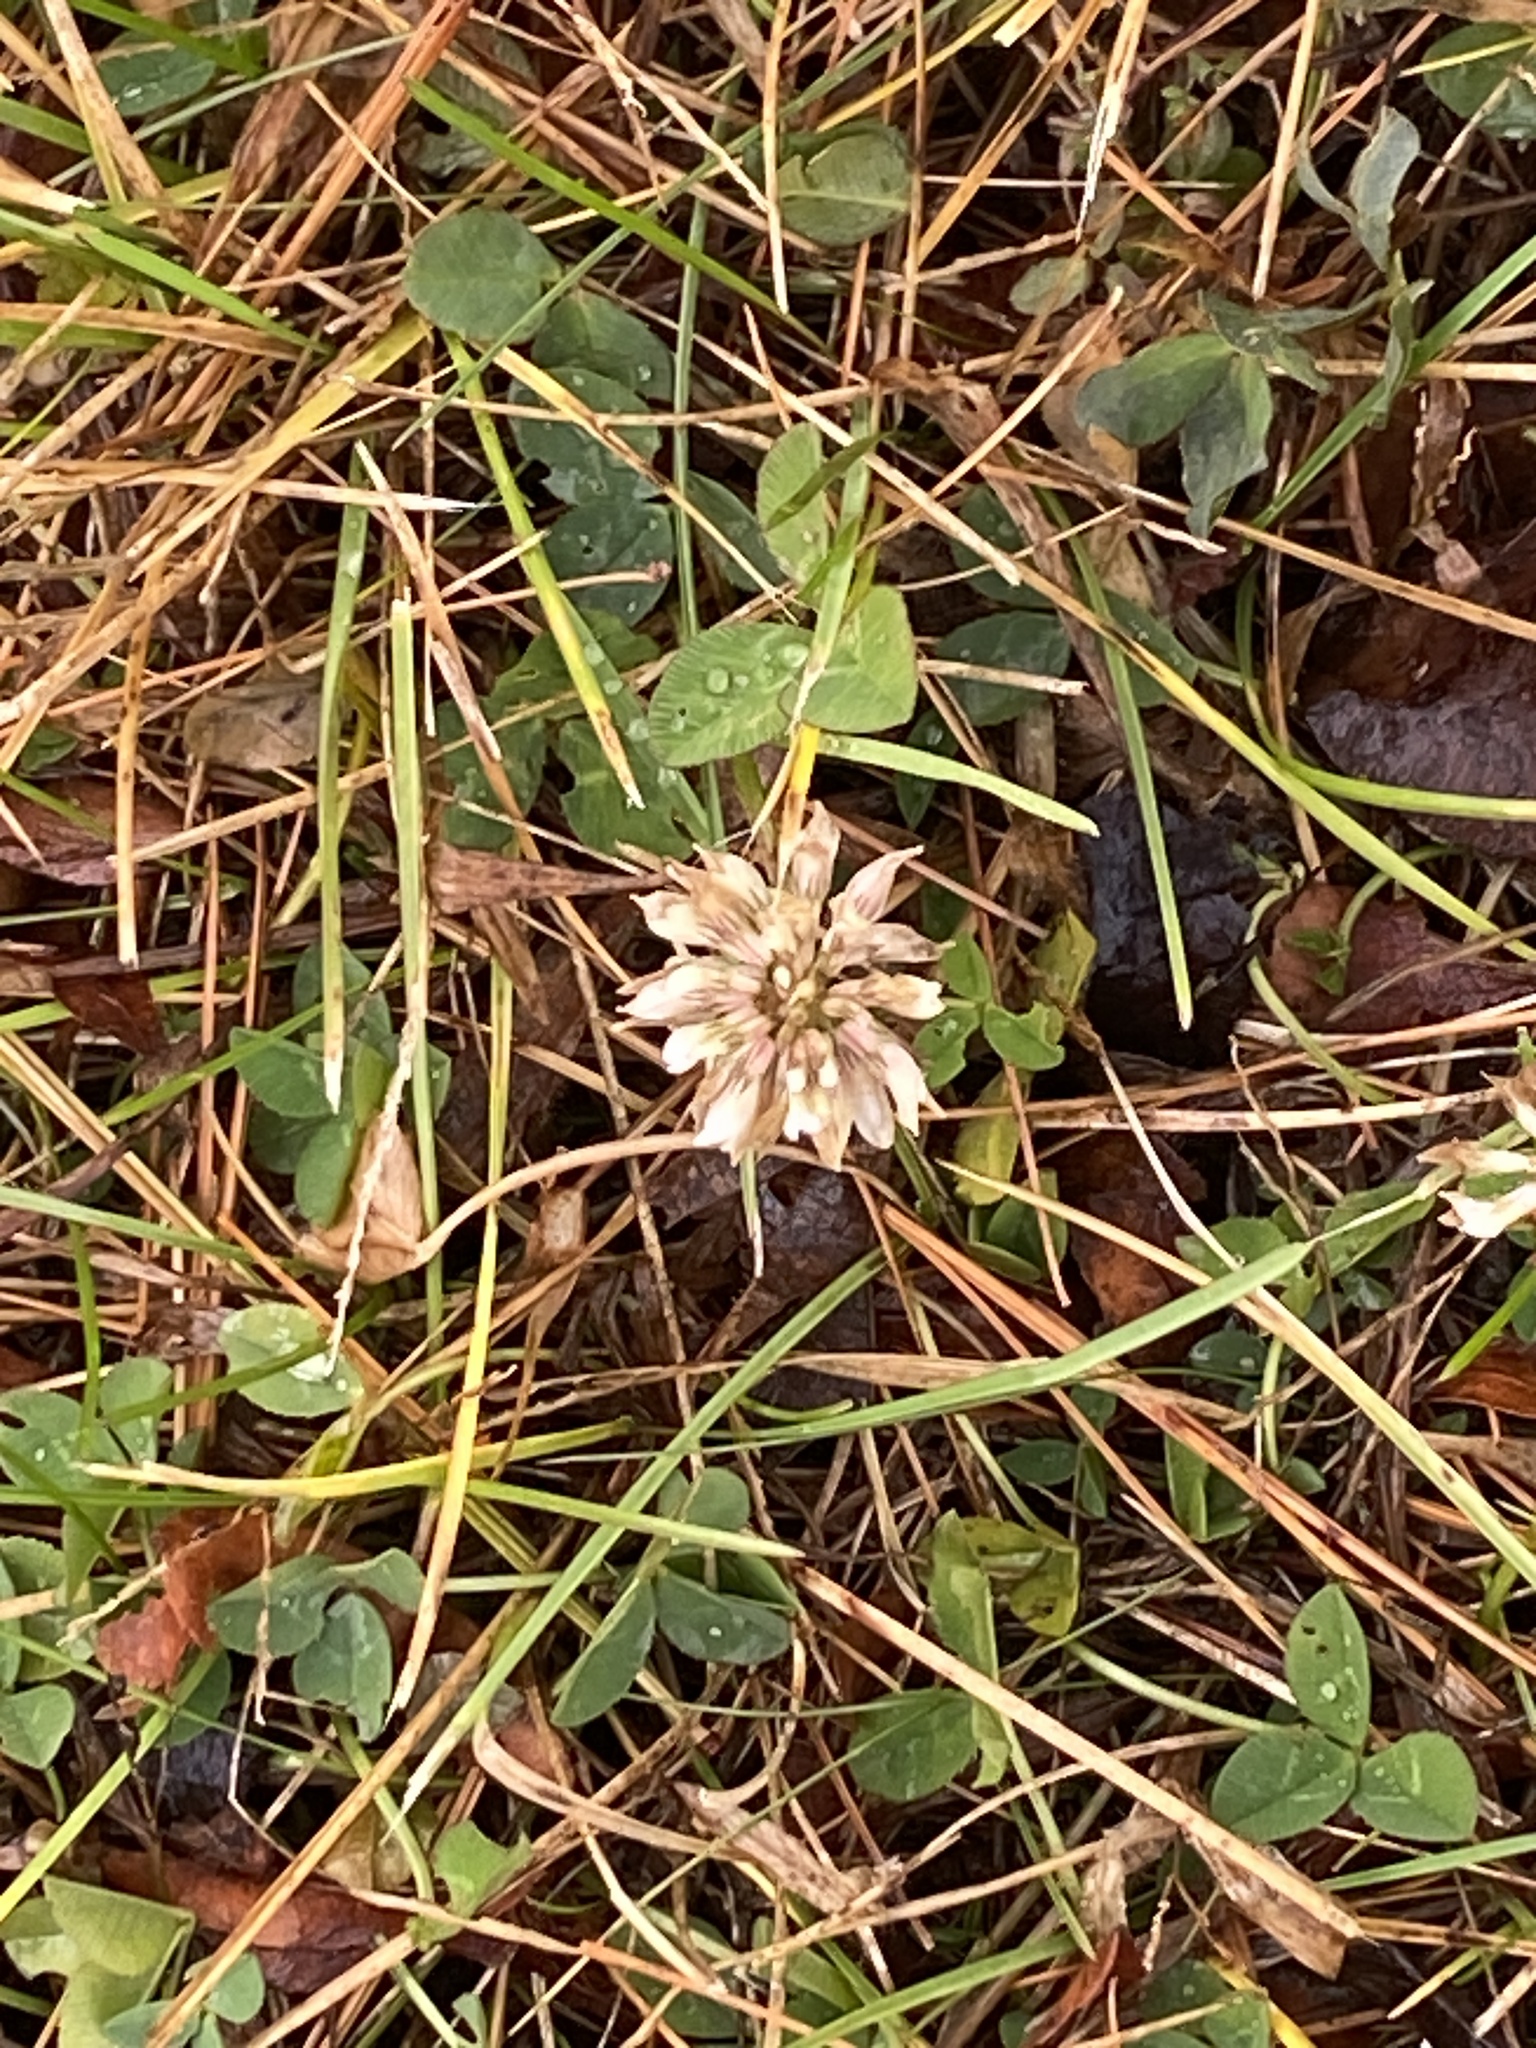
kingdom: Plantae
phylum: Tracheophyta
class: Magnoliopsida
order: Fabales
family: Fabaceae
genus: Trifolium
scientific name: Trifolium repens
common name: White clover
